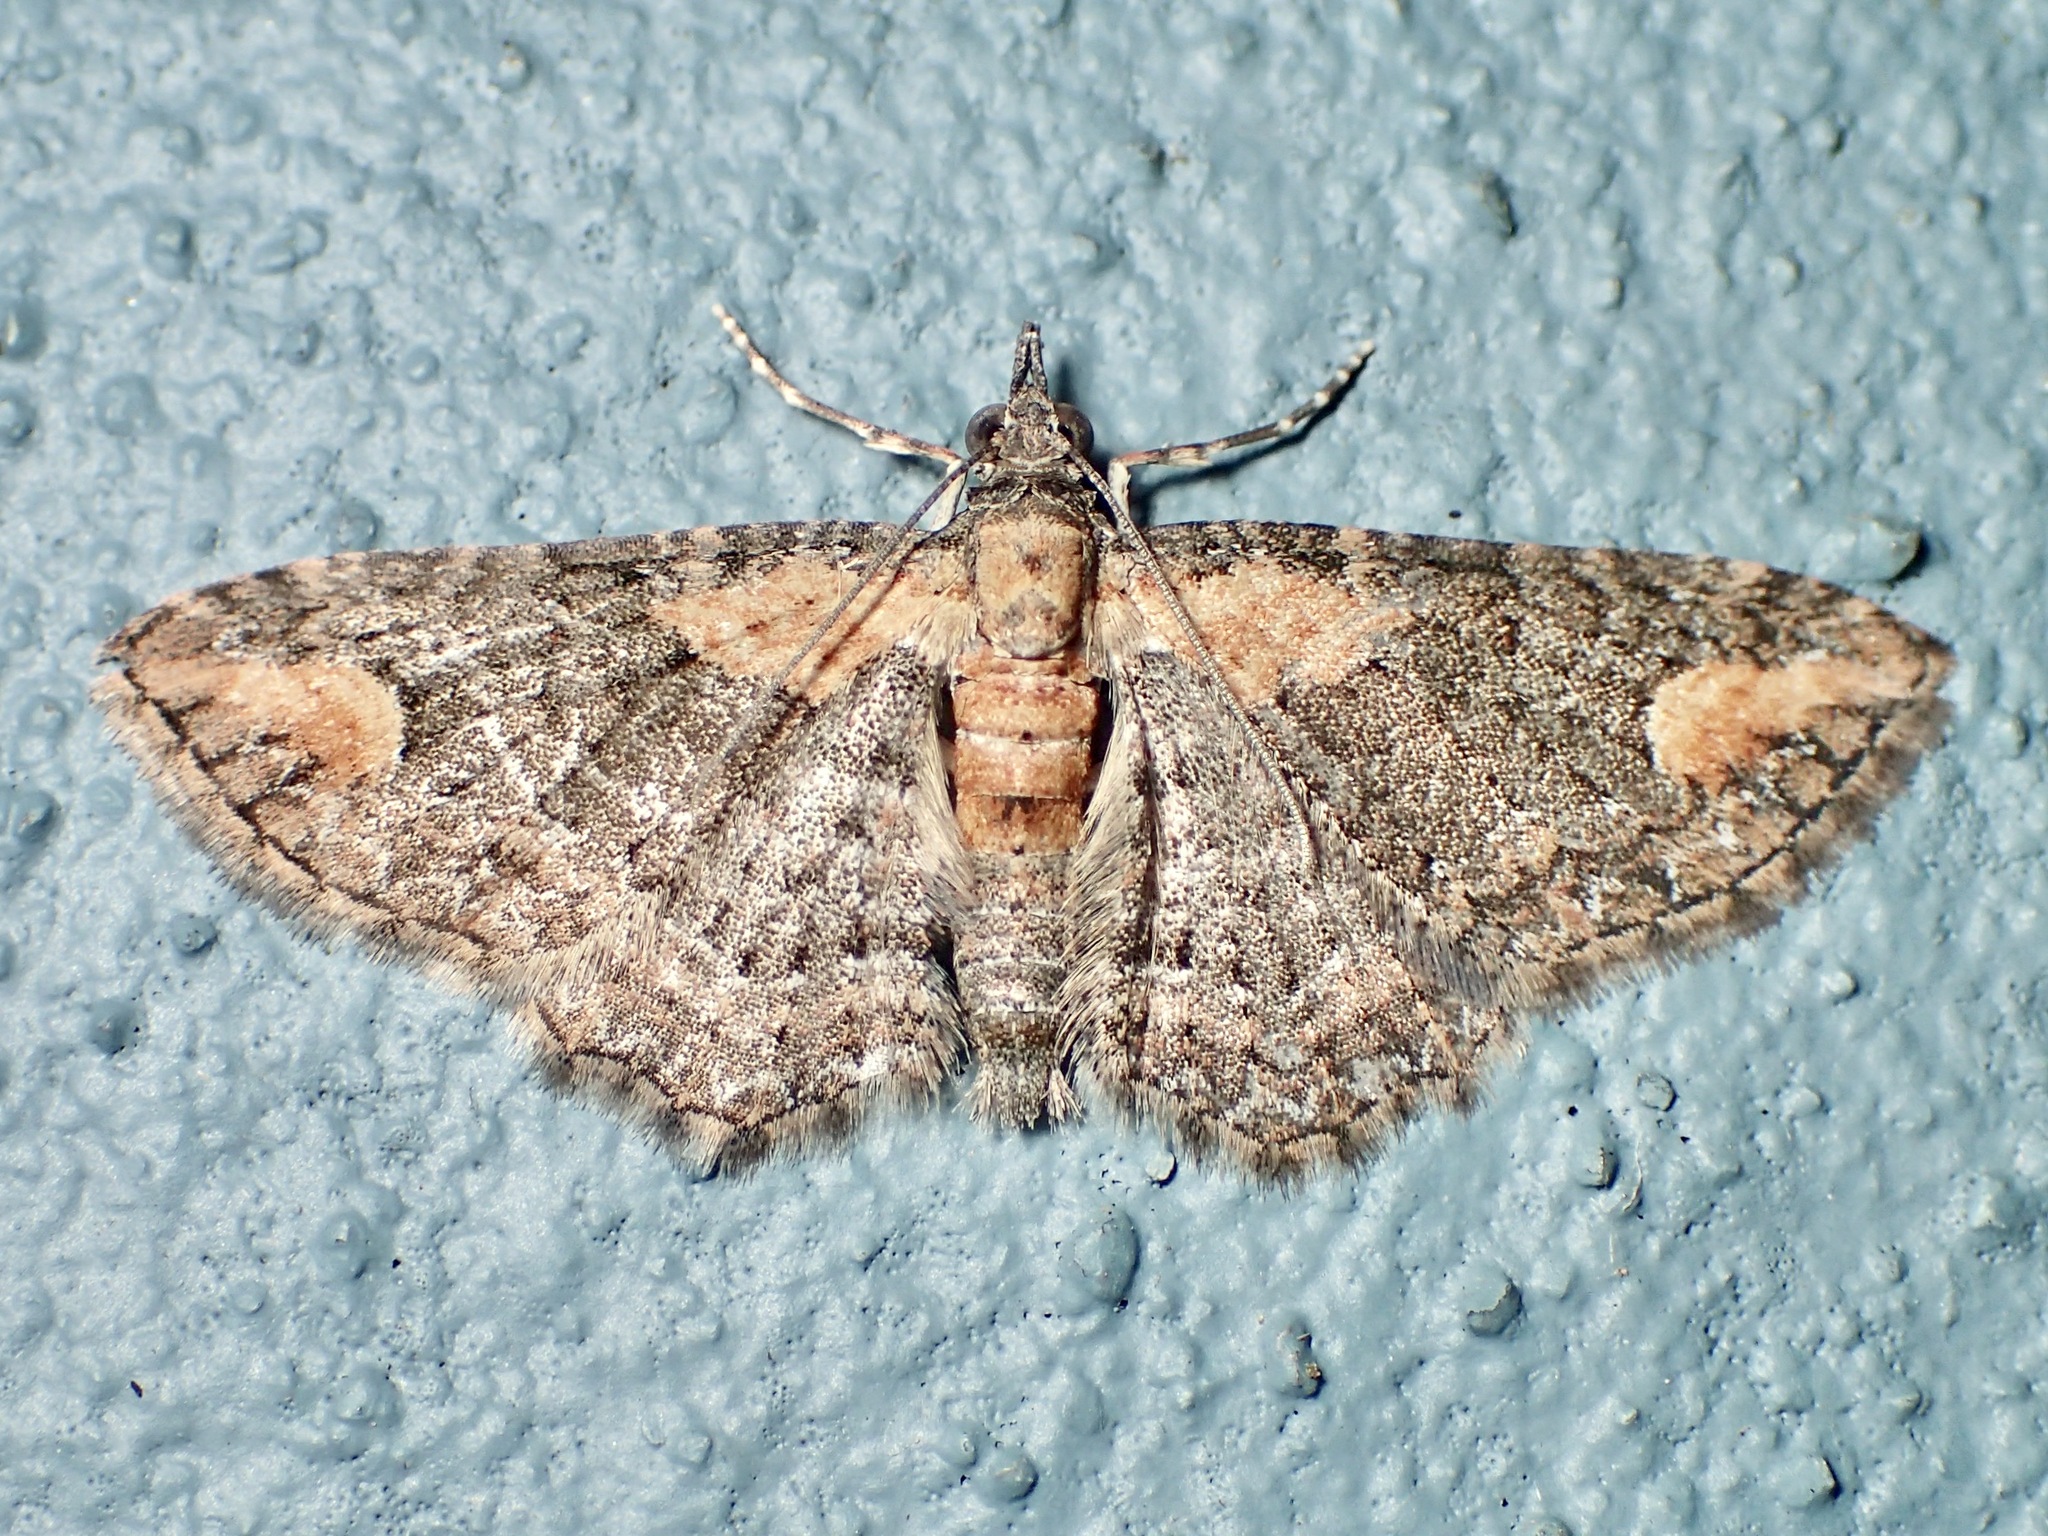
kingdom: Animalia
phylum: Arthropoda
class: Insecta
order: Lepidoptera
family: Geometridae
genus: Pasiphilodes
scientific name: Pasiphilodes testulata
